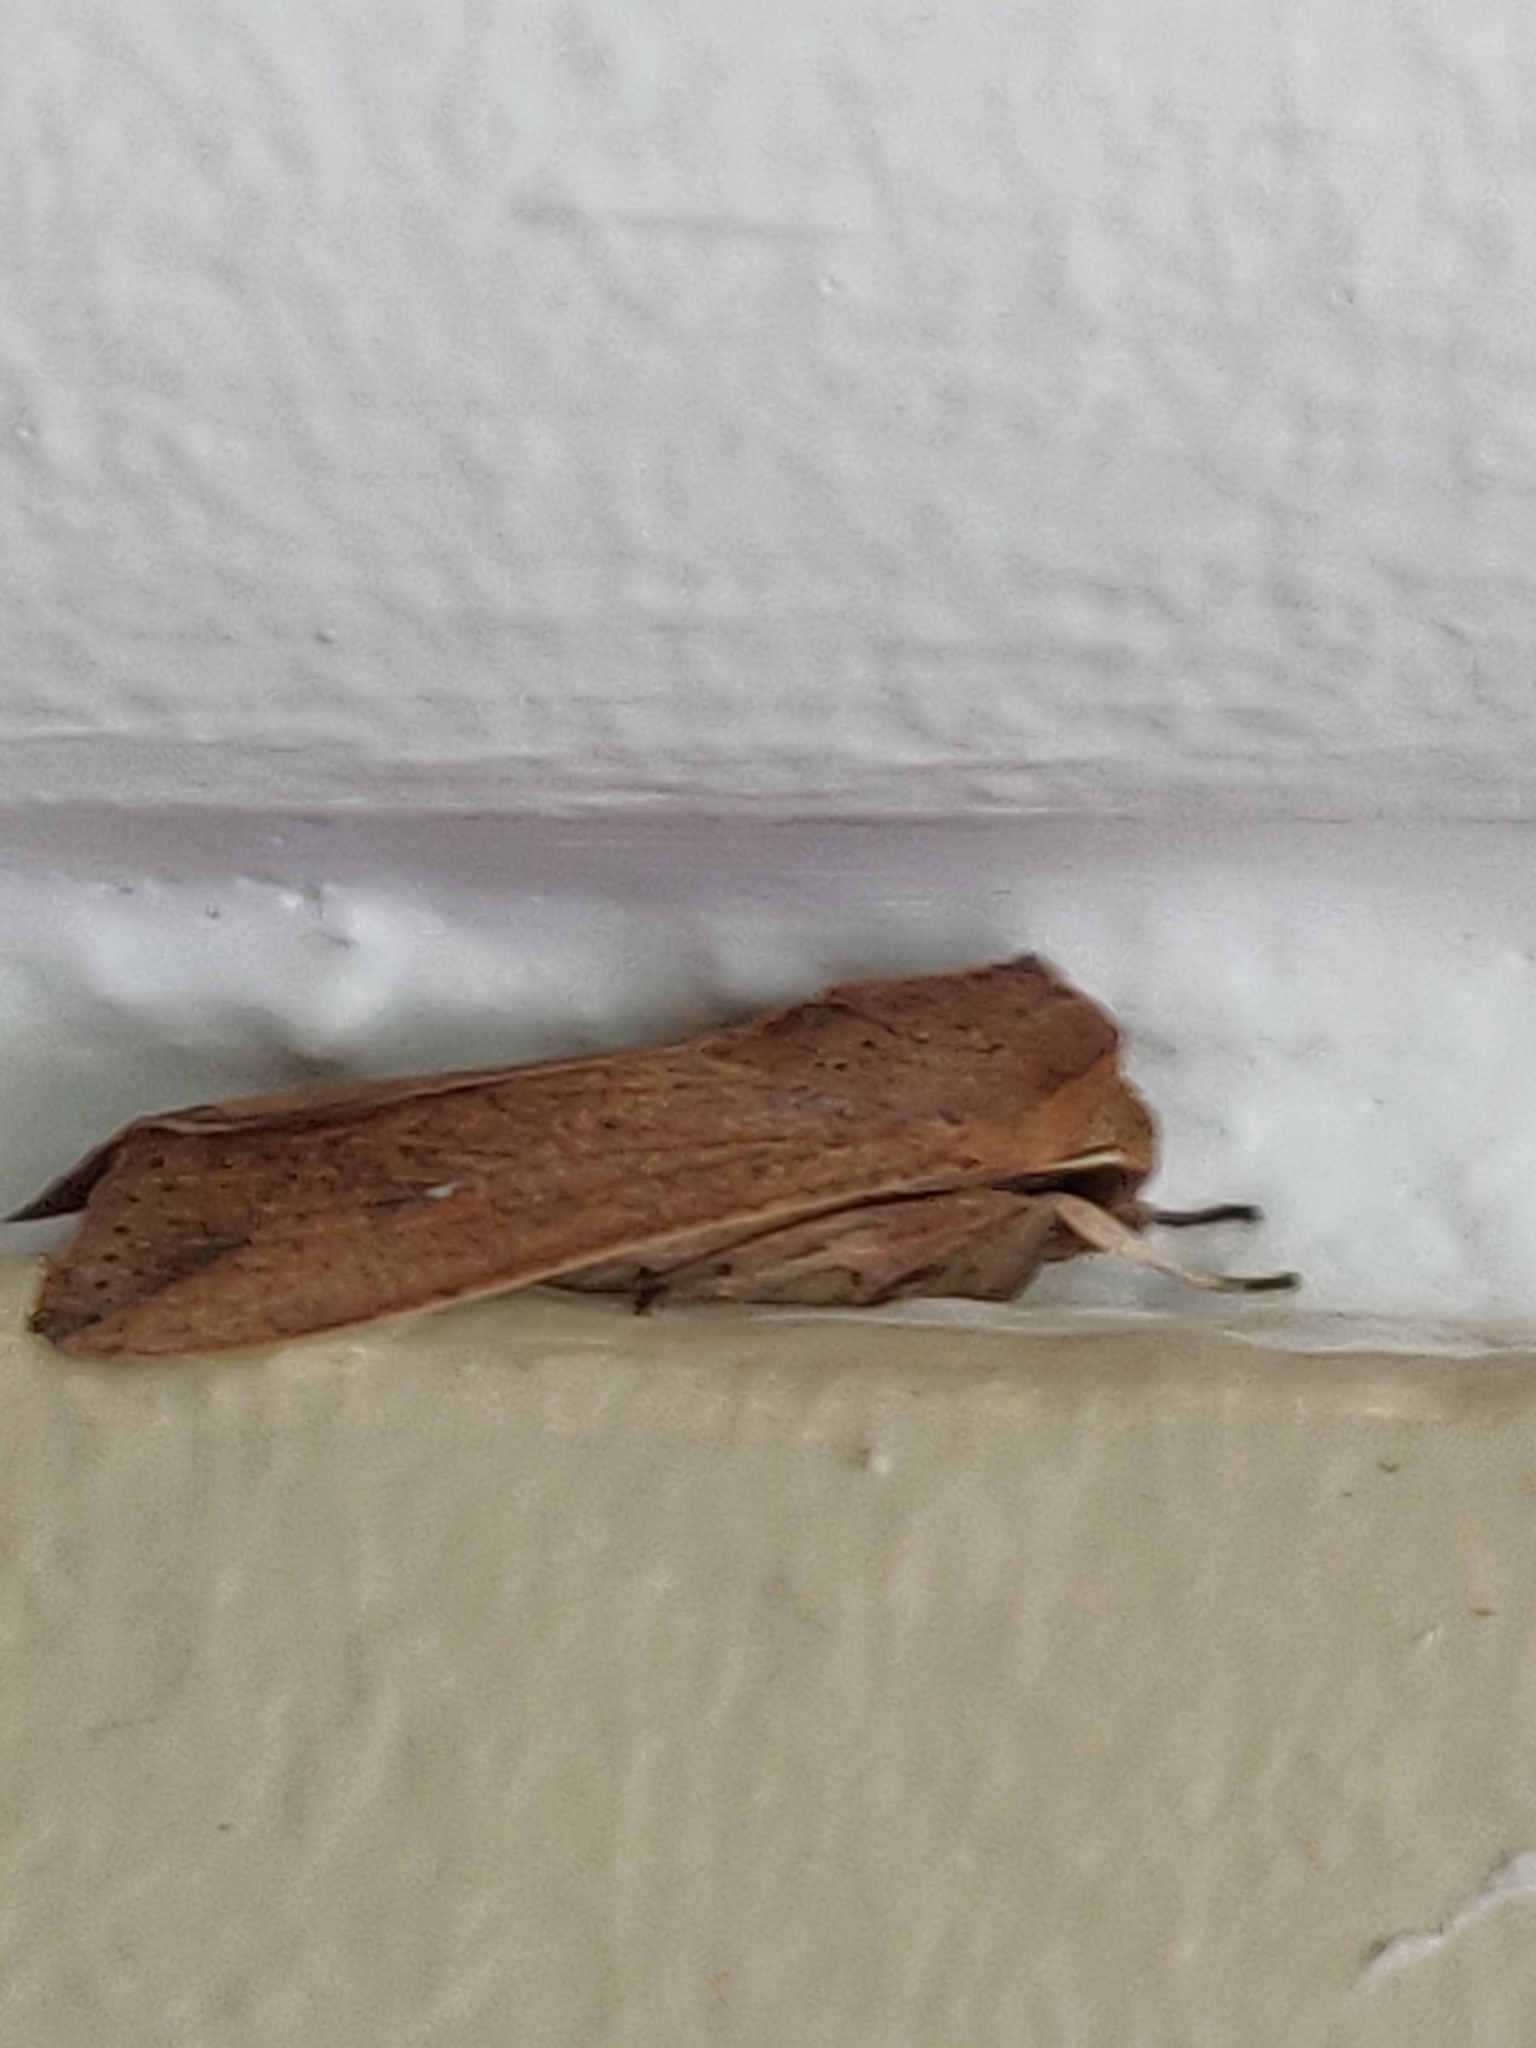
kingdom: Animalia
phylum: Arthropoda
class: Insecta
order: Lepidoptera
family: Noctuidae
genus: Mythimna
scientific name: Mythimna convecta
